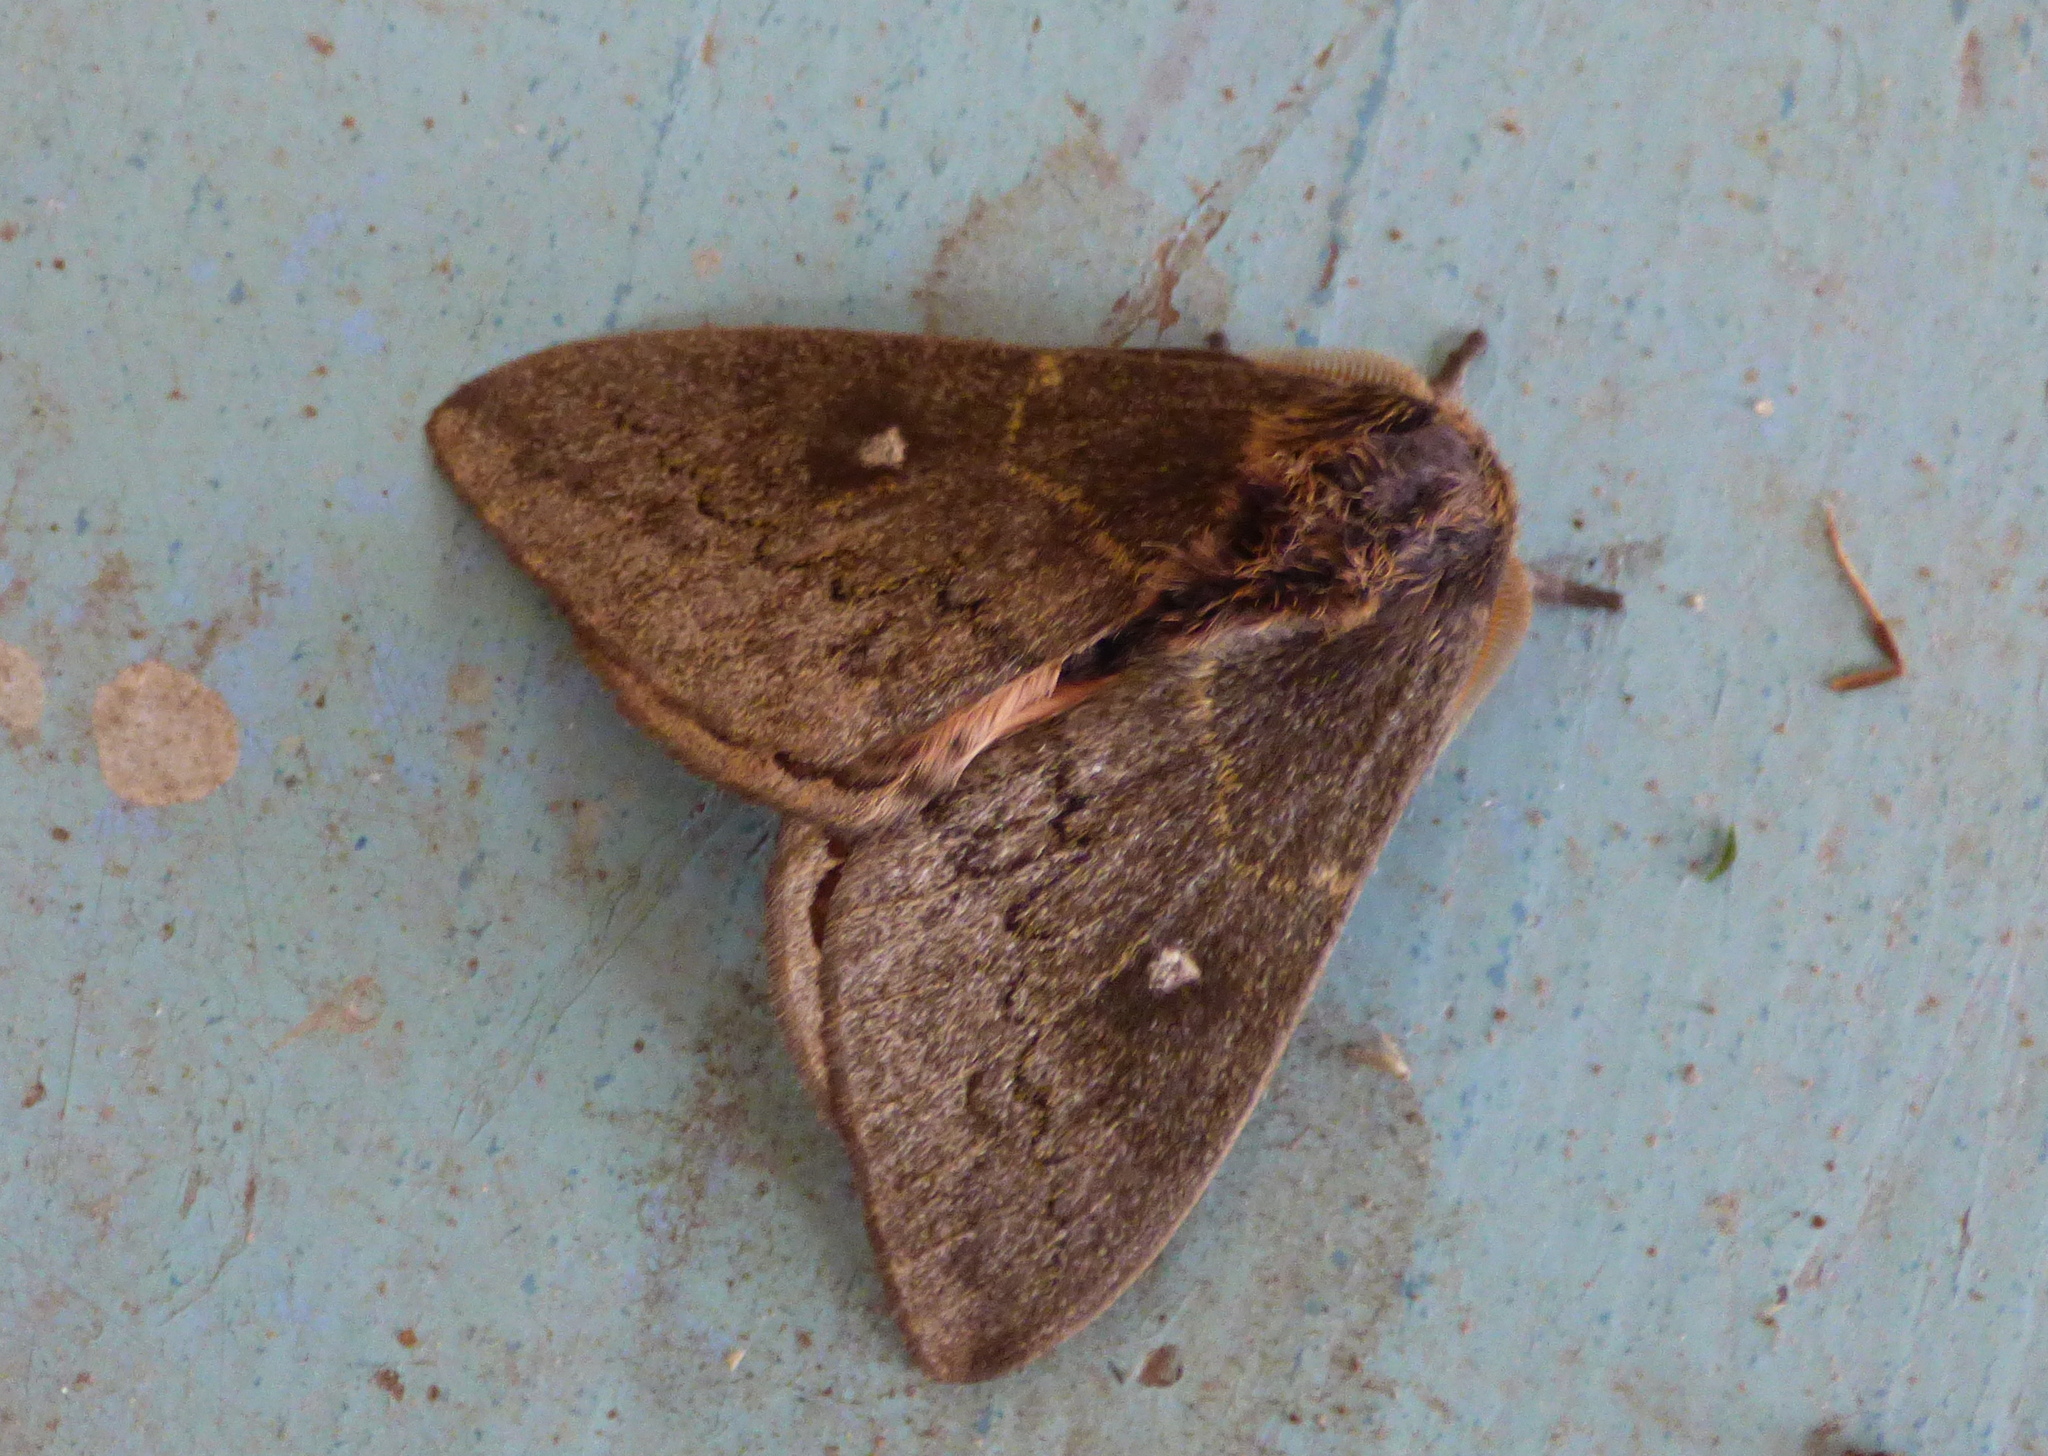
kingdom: Animalia
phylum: Arthropoda
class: Insecta
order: Lepidoptera
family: Saturniidae
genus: Leucanella
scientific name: Leucanella aspera
